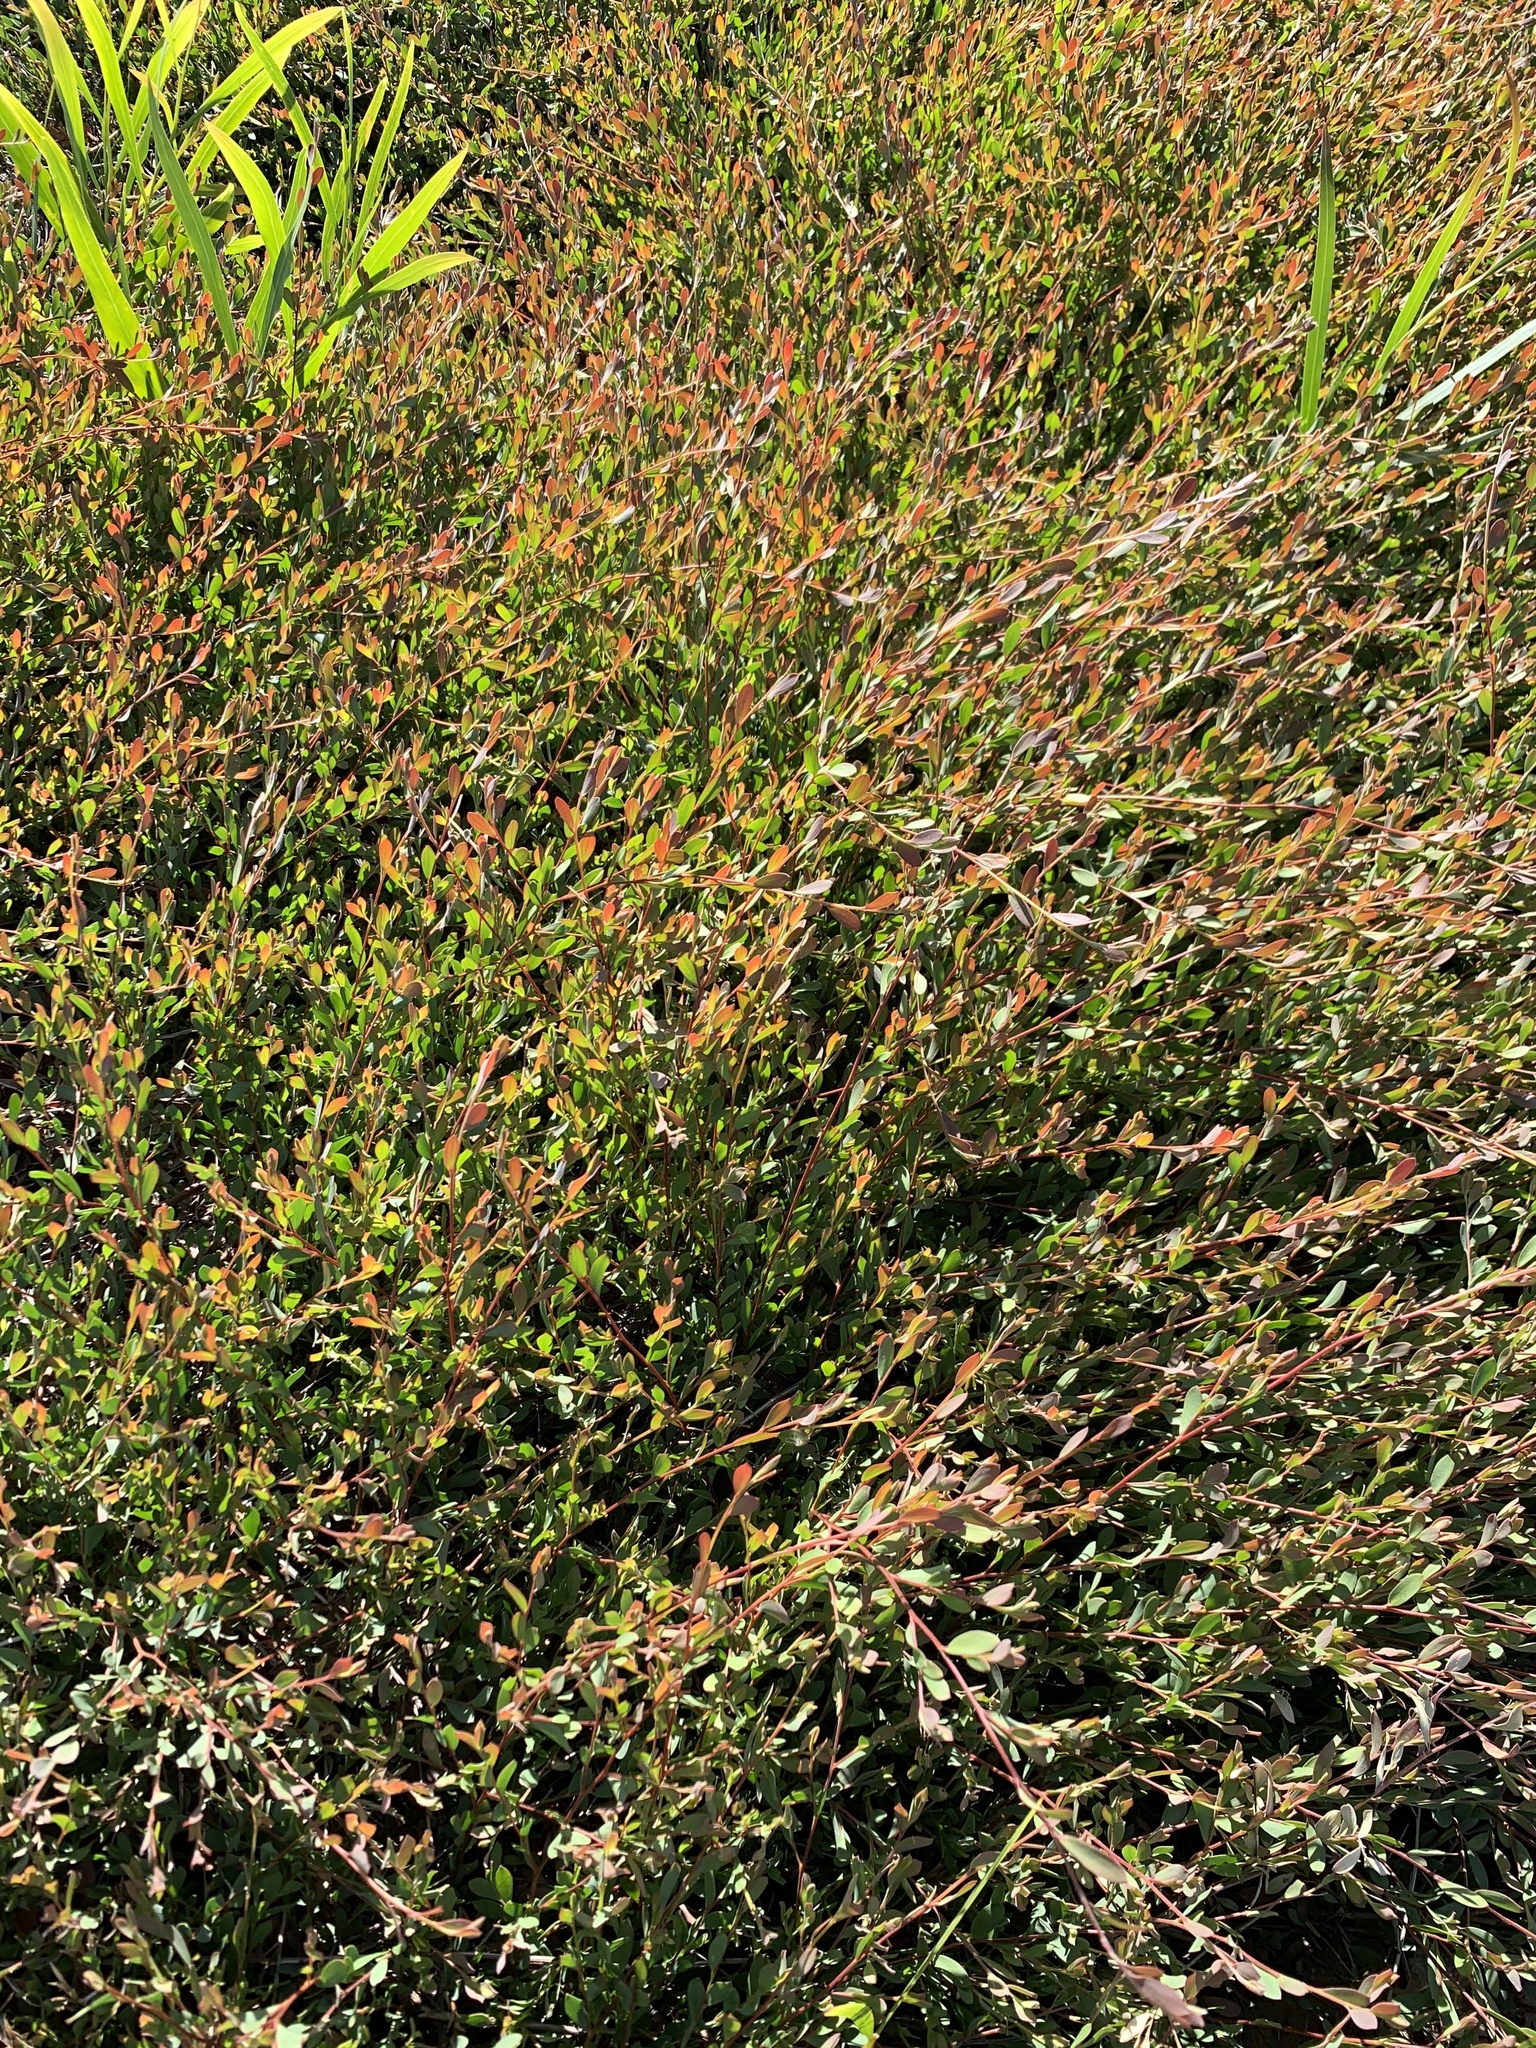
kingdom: Plantae
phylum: Tracheophyta
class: Magnoliopsida
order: Myrtales
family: Myrtaceae
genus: Leptospermum
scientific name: Leptospermum laevigatum
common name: Australian teatree
